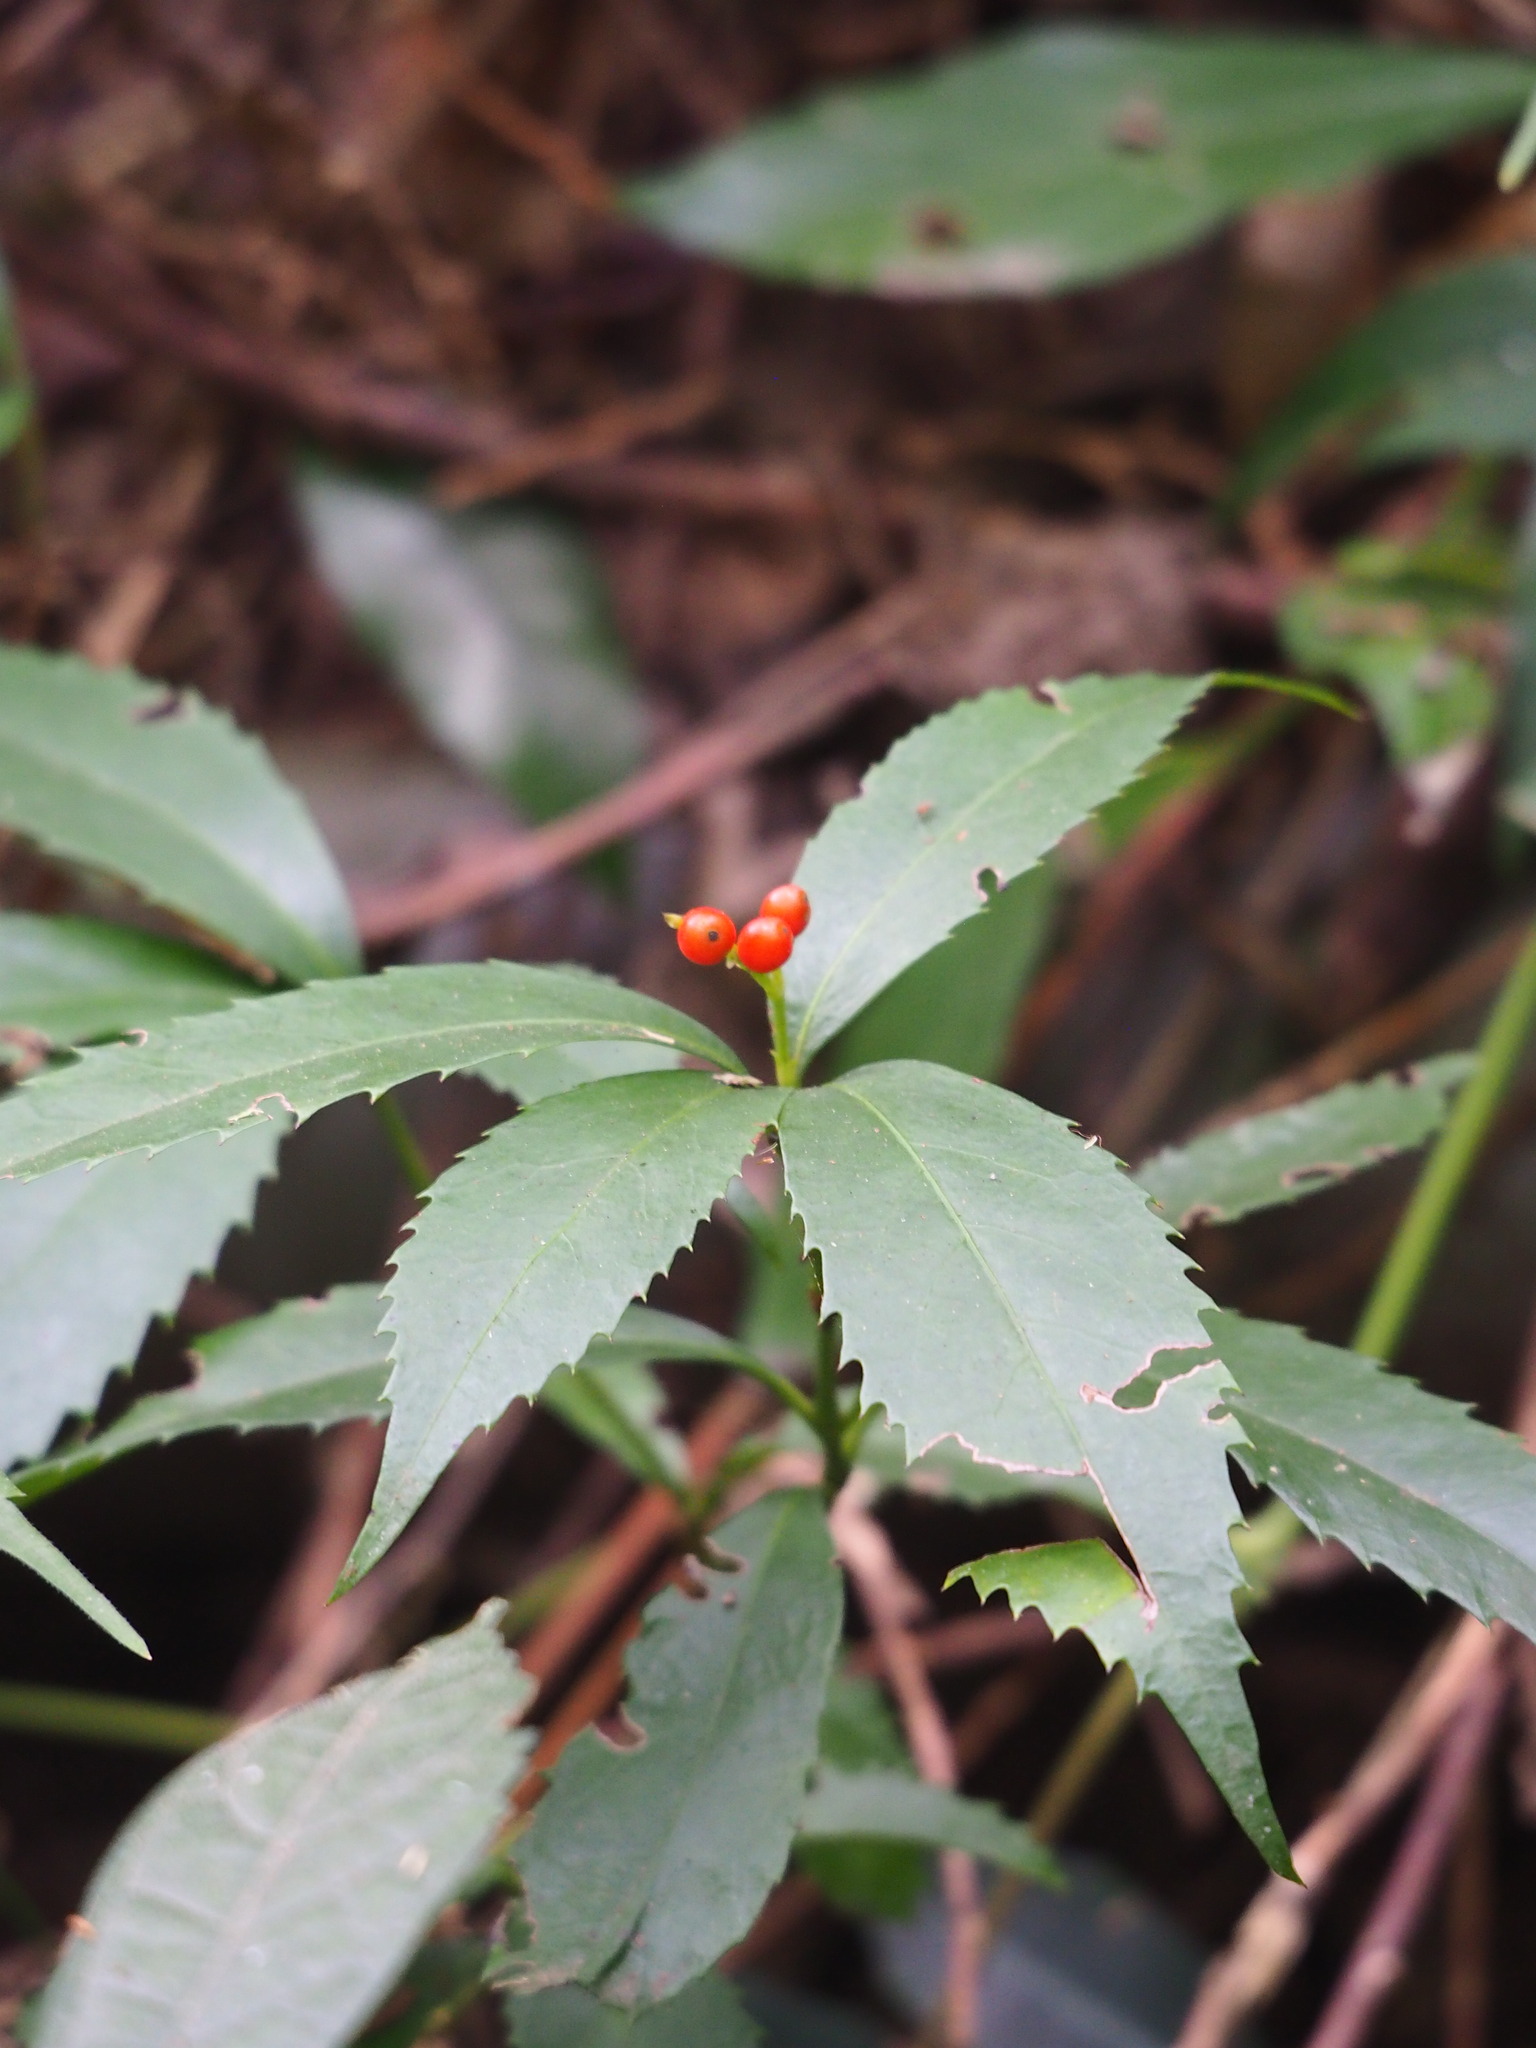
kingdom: Plantae
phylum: Tracheophyta
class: Magnoliopsida
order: Chloranthales
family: Chloranthaceae
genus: Sarcandra
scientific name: Sarcandra glabra
